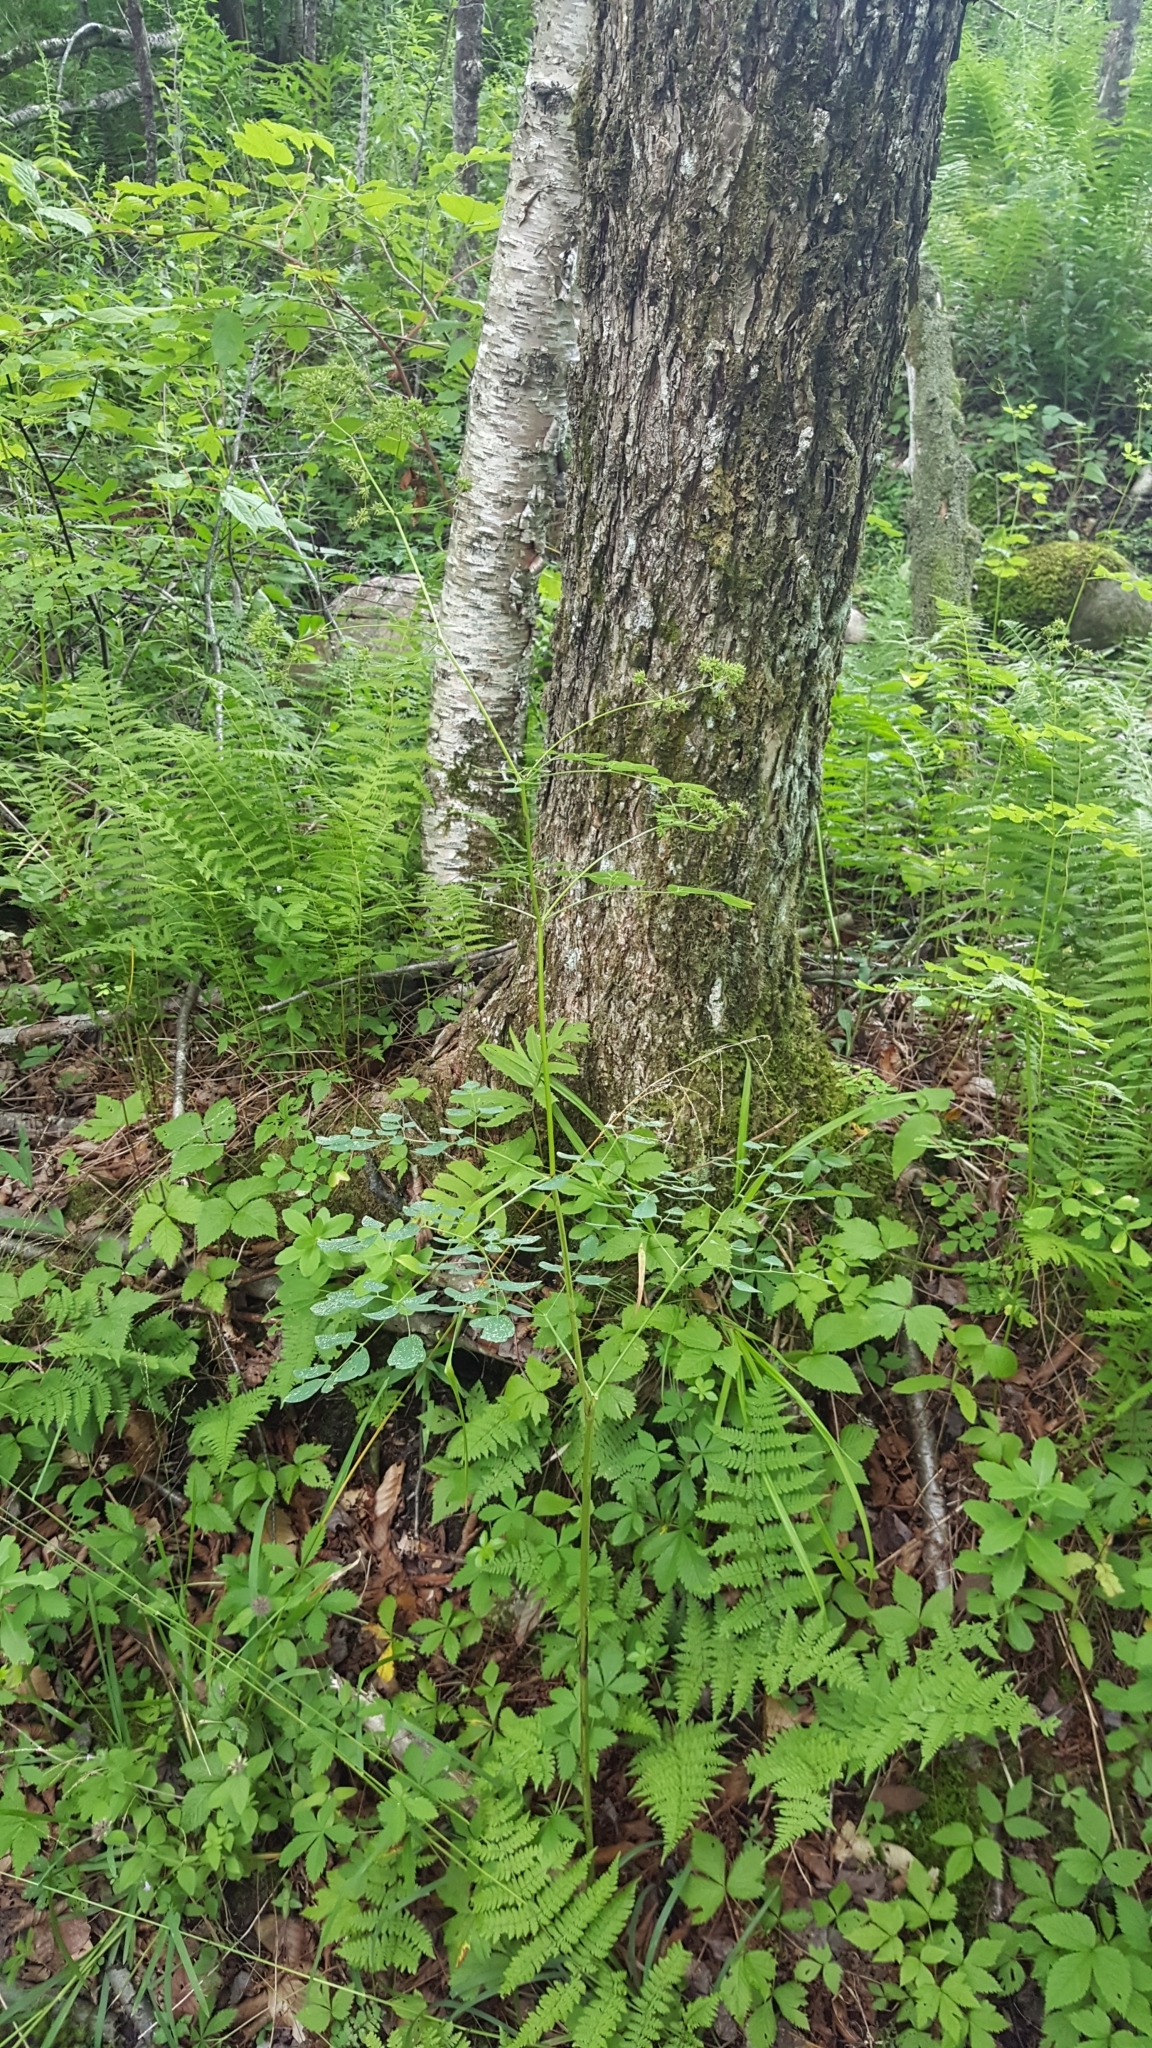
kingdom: Plantae
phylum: Tracheophyta
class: Magnoliopsida
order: Ranunculales
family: Ranunculaceae
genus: Thalictrum
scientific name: Thalictrum pubescens
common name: King-of-the-meadow
